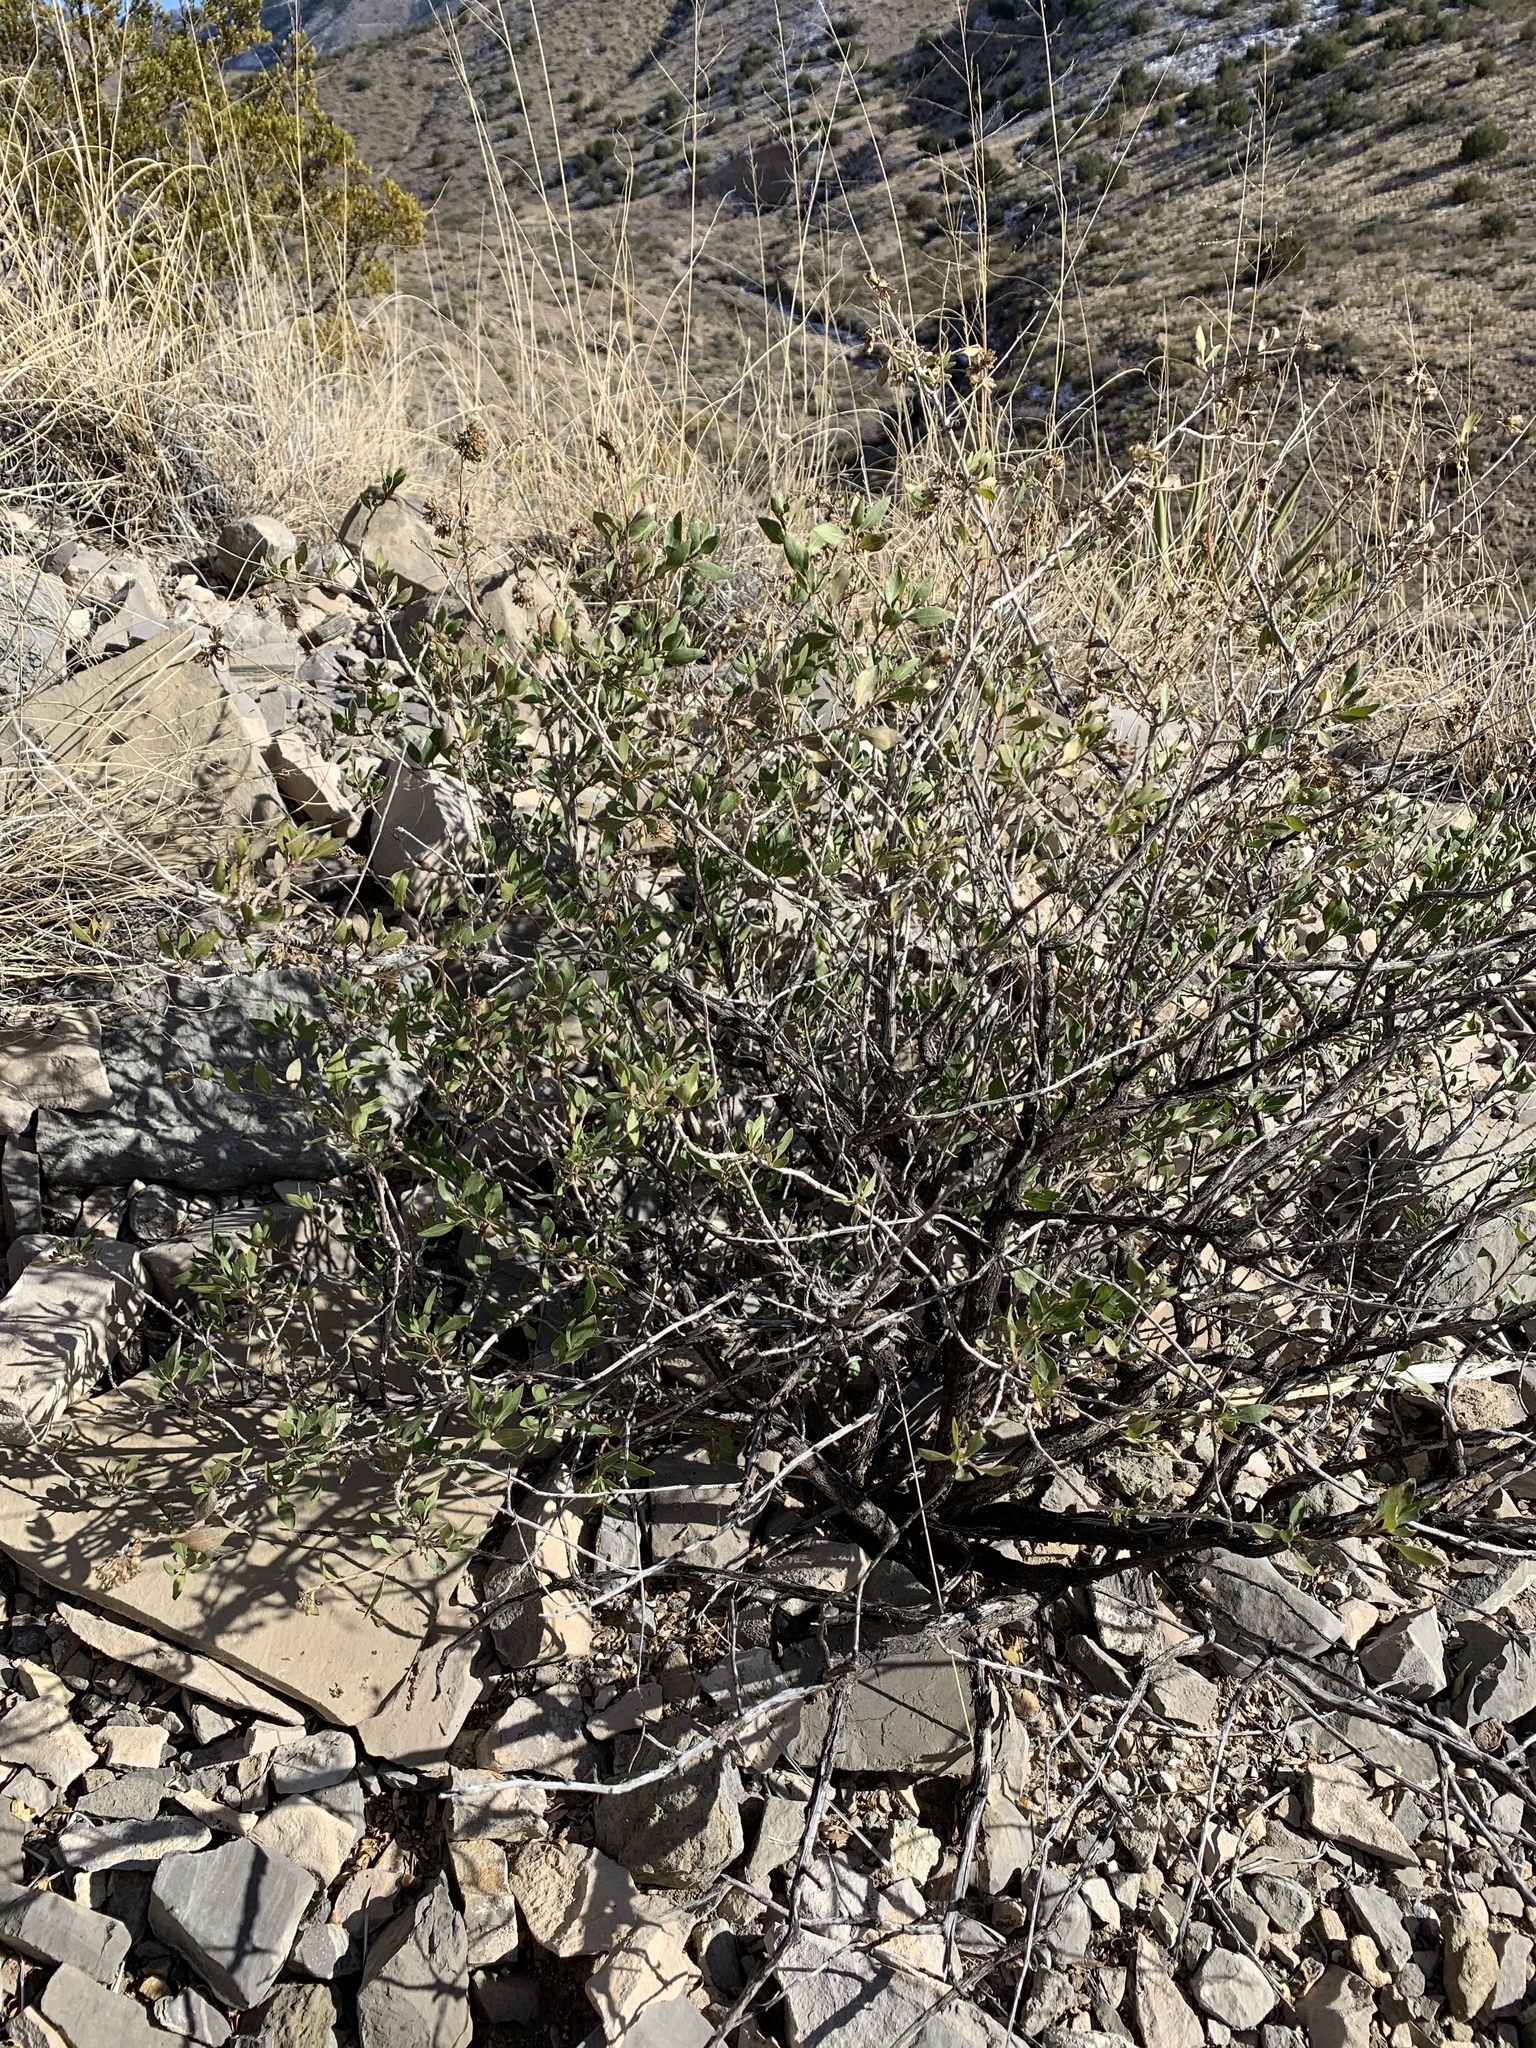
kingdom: Plantae
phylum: Tracheophyta
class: Magnoliopsida
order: Asterales
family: Asteraceae
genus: Flourensia
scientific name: Flourensia cernua
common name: Varnishbush
